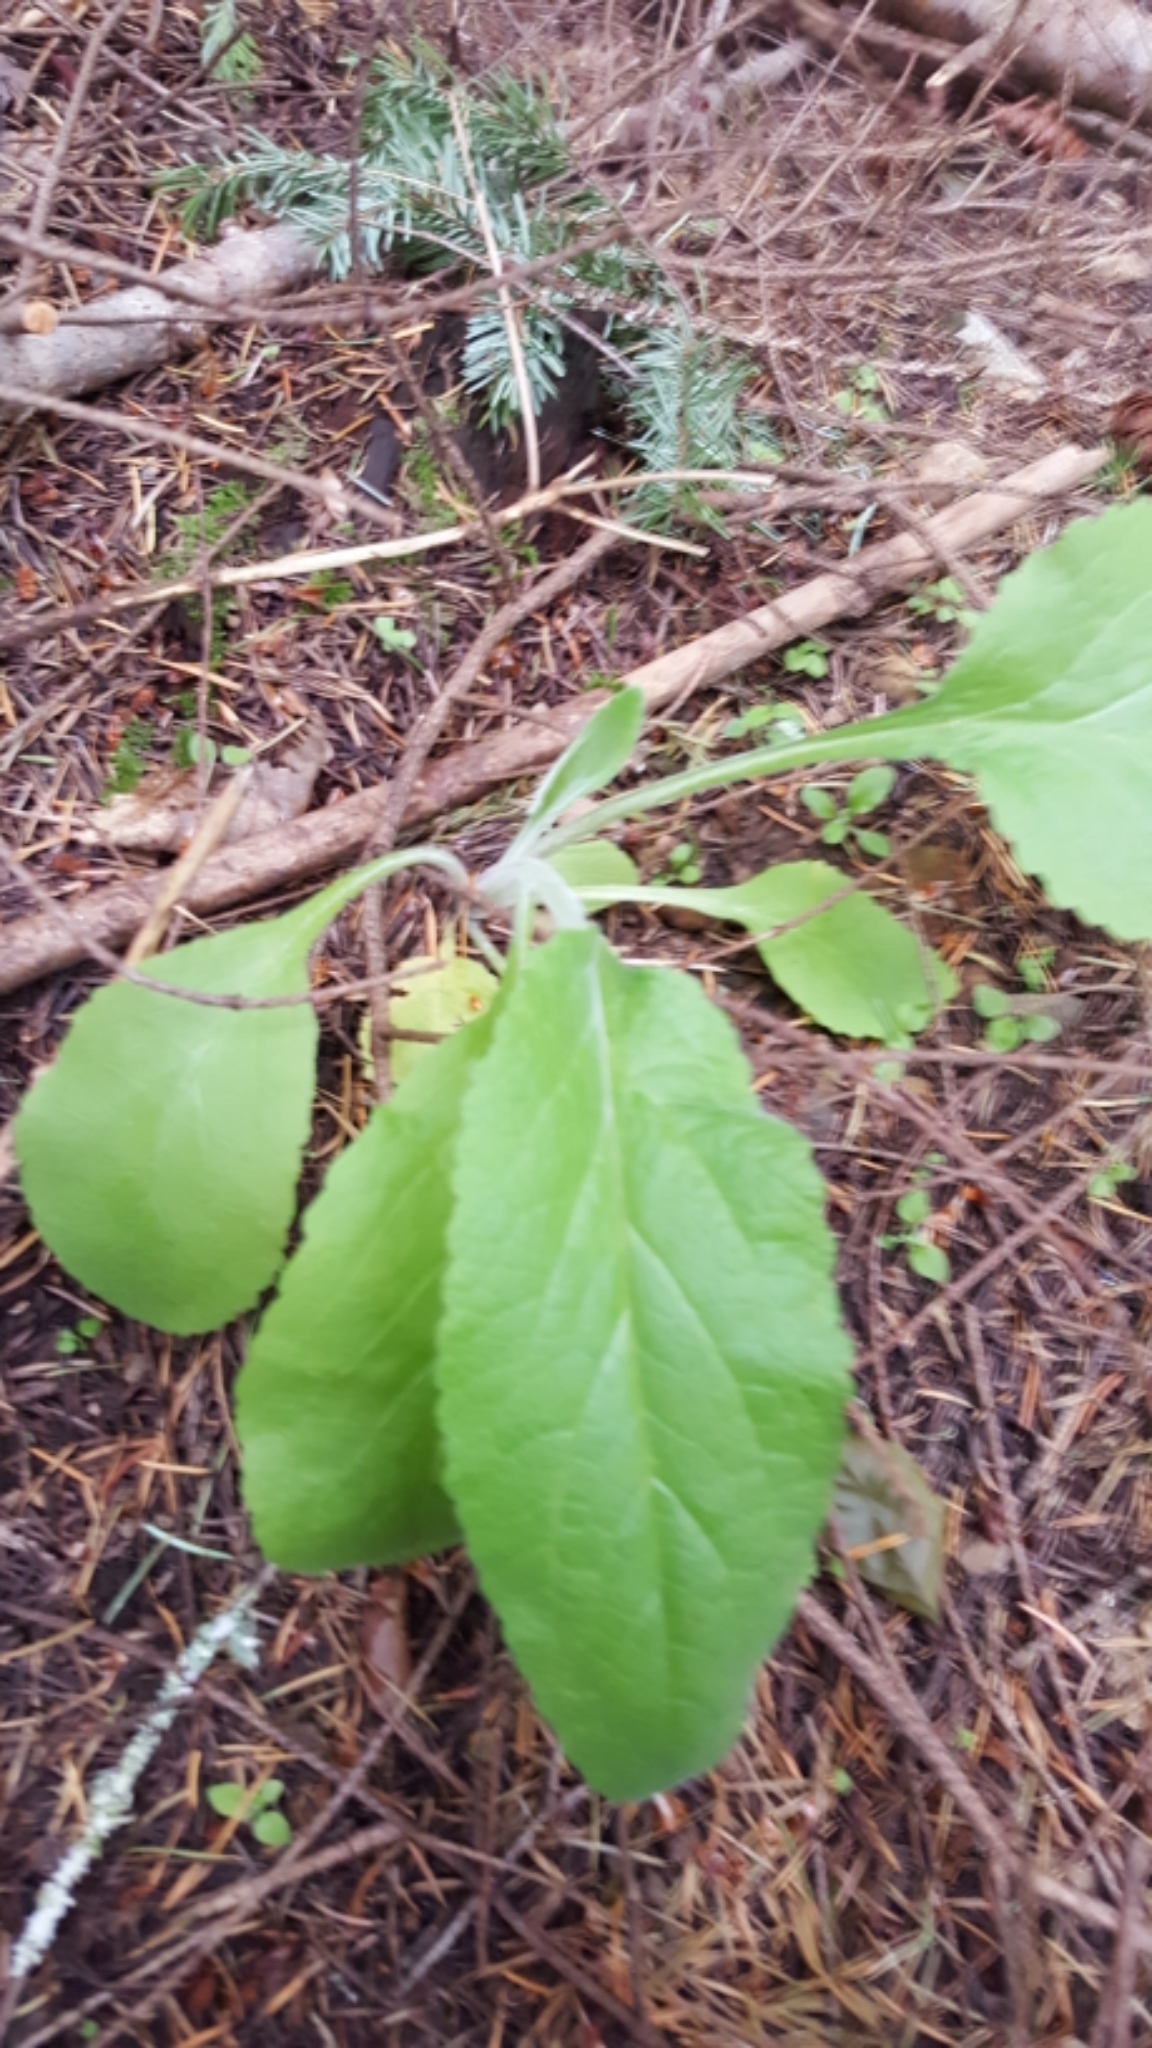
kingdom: Plantae
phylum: Tracheophyta
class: Magnoliopsida
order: Lamiales
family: Plantaginaceae
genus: Digitalis
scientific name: Digitalis purpurea
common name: Foxglove
